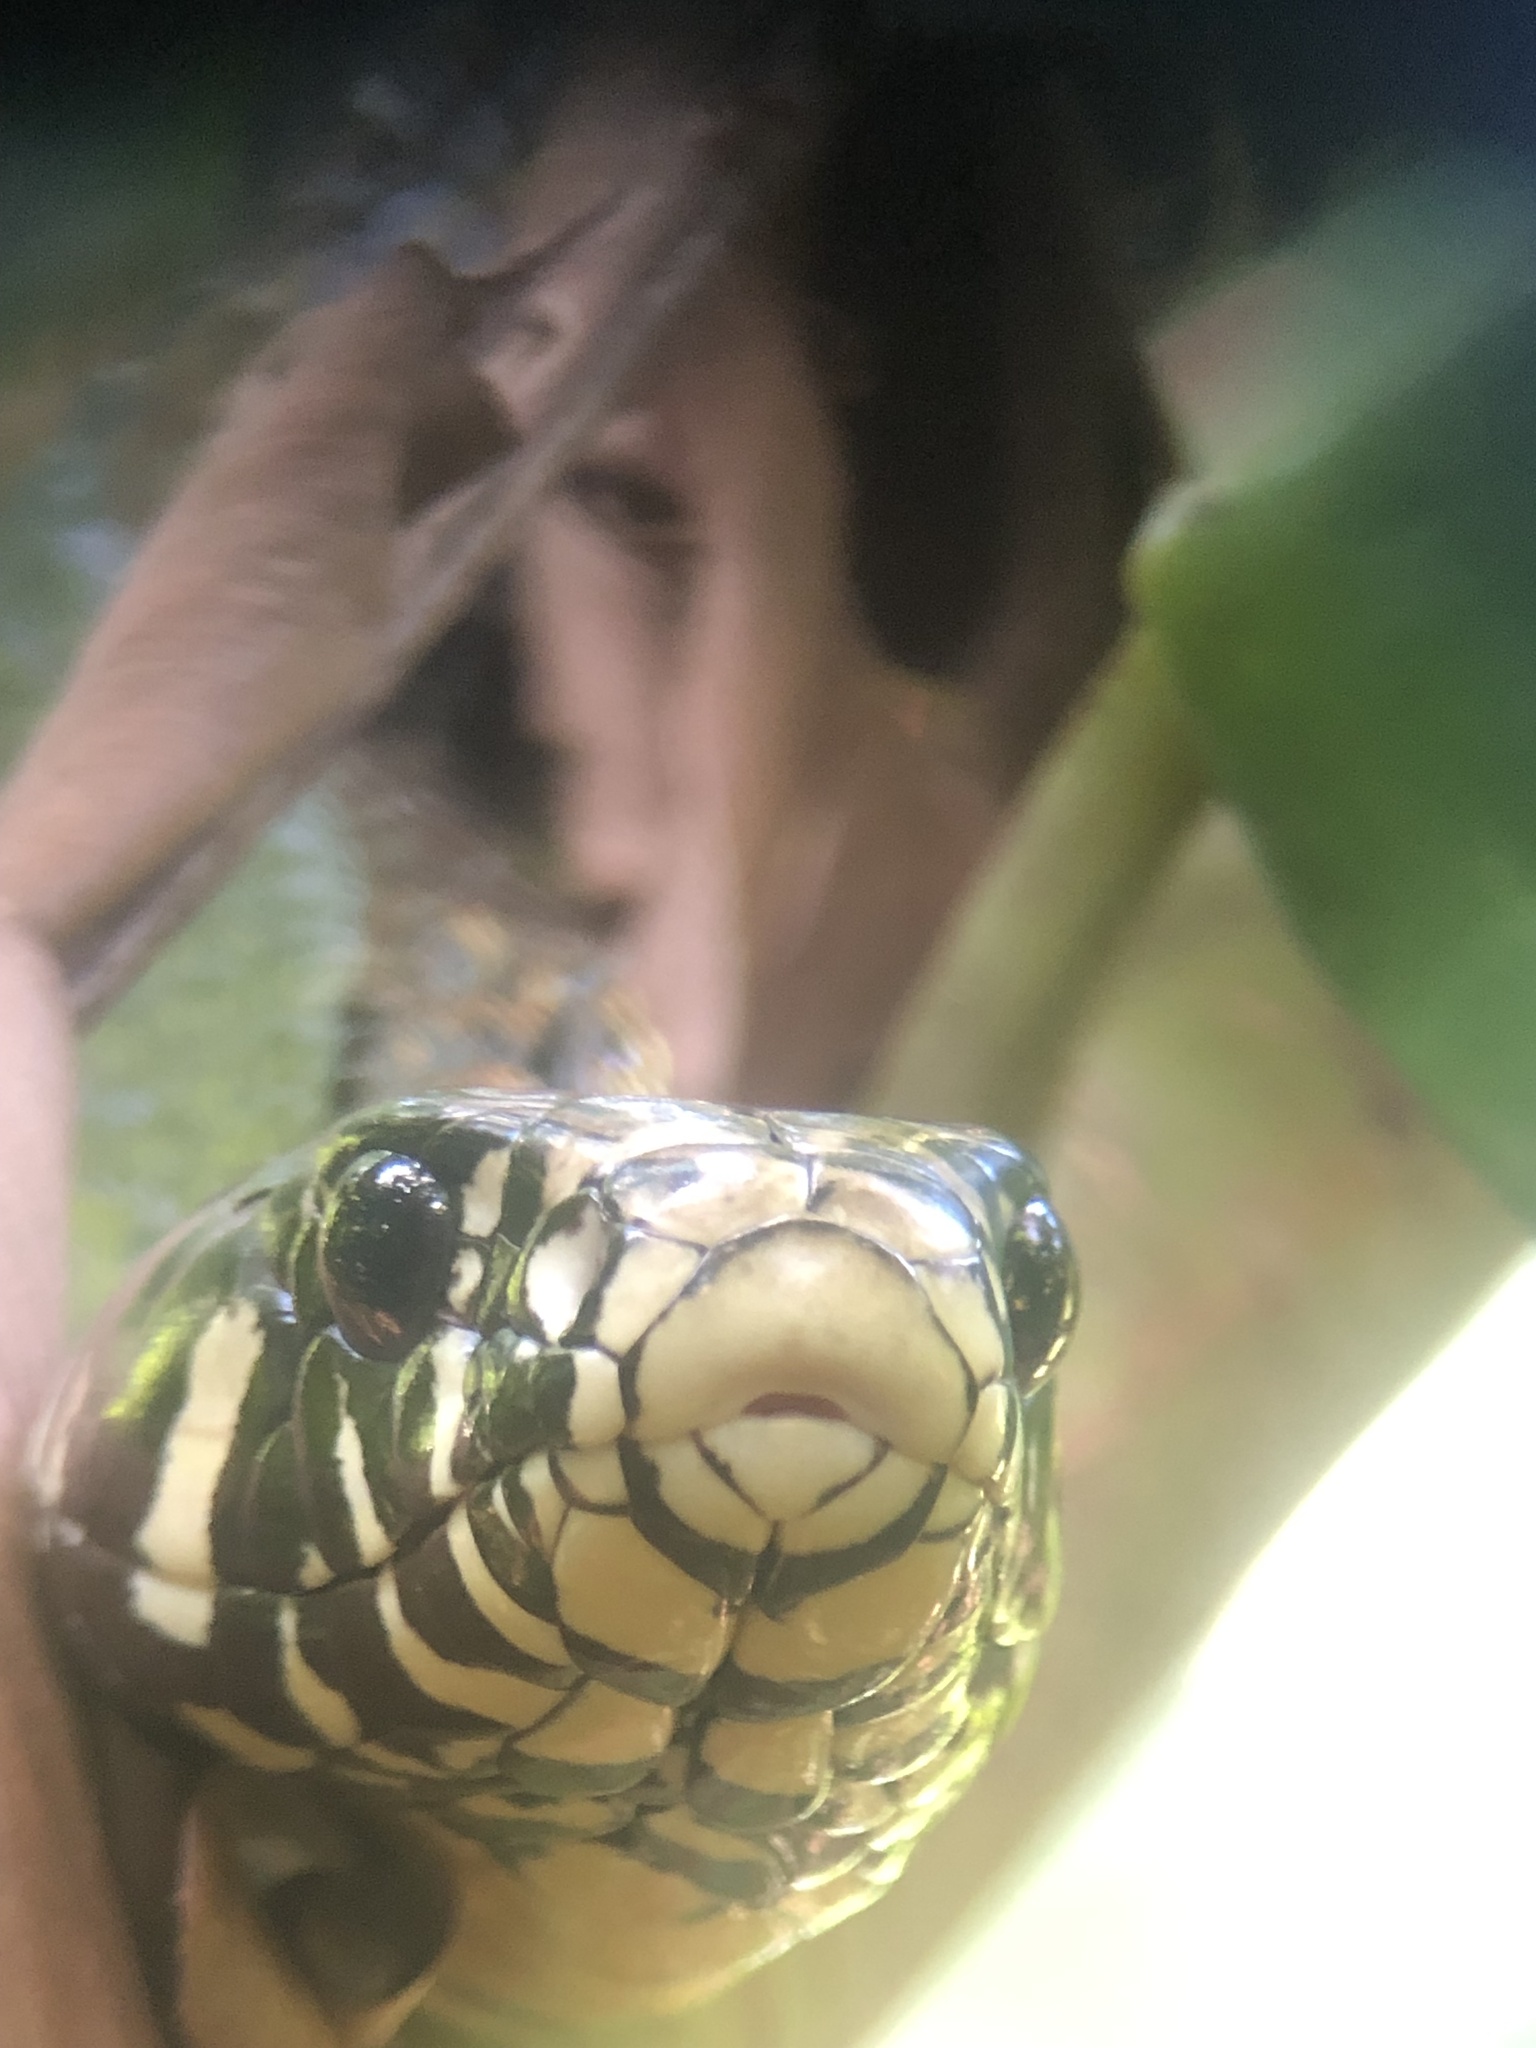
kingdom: Animalia
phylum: Chordata
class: Squamata
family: Colubridae
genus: Spilotes
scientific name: Spilotes pullatus
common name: Chicken snake
